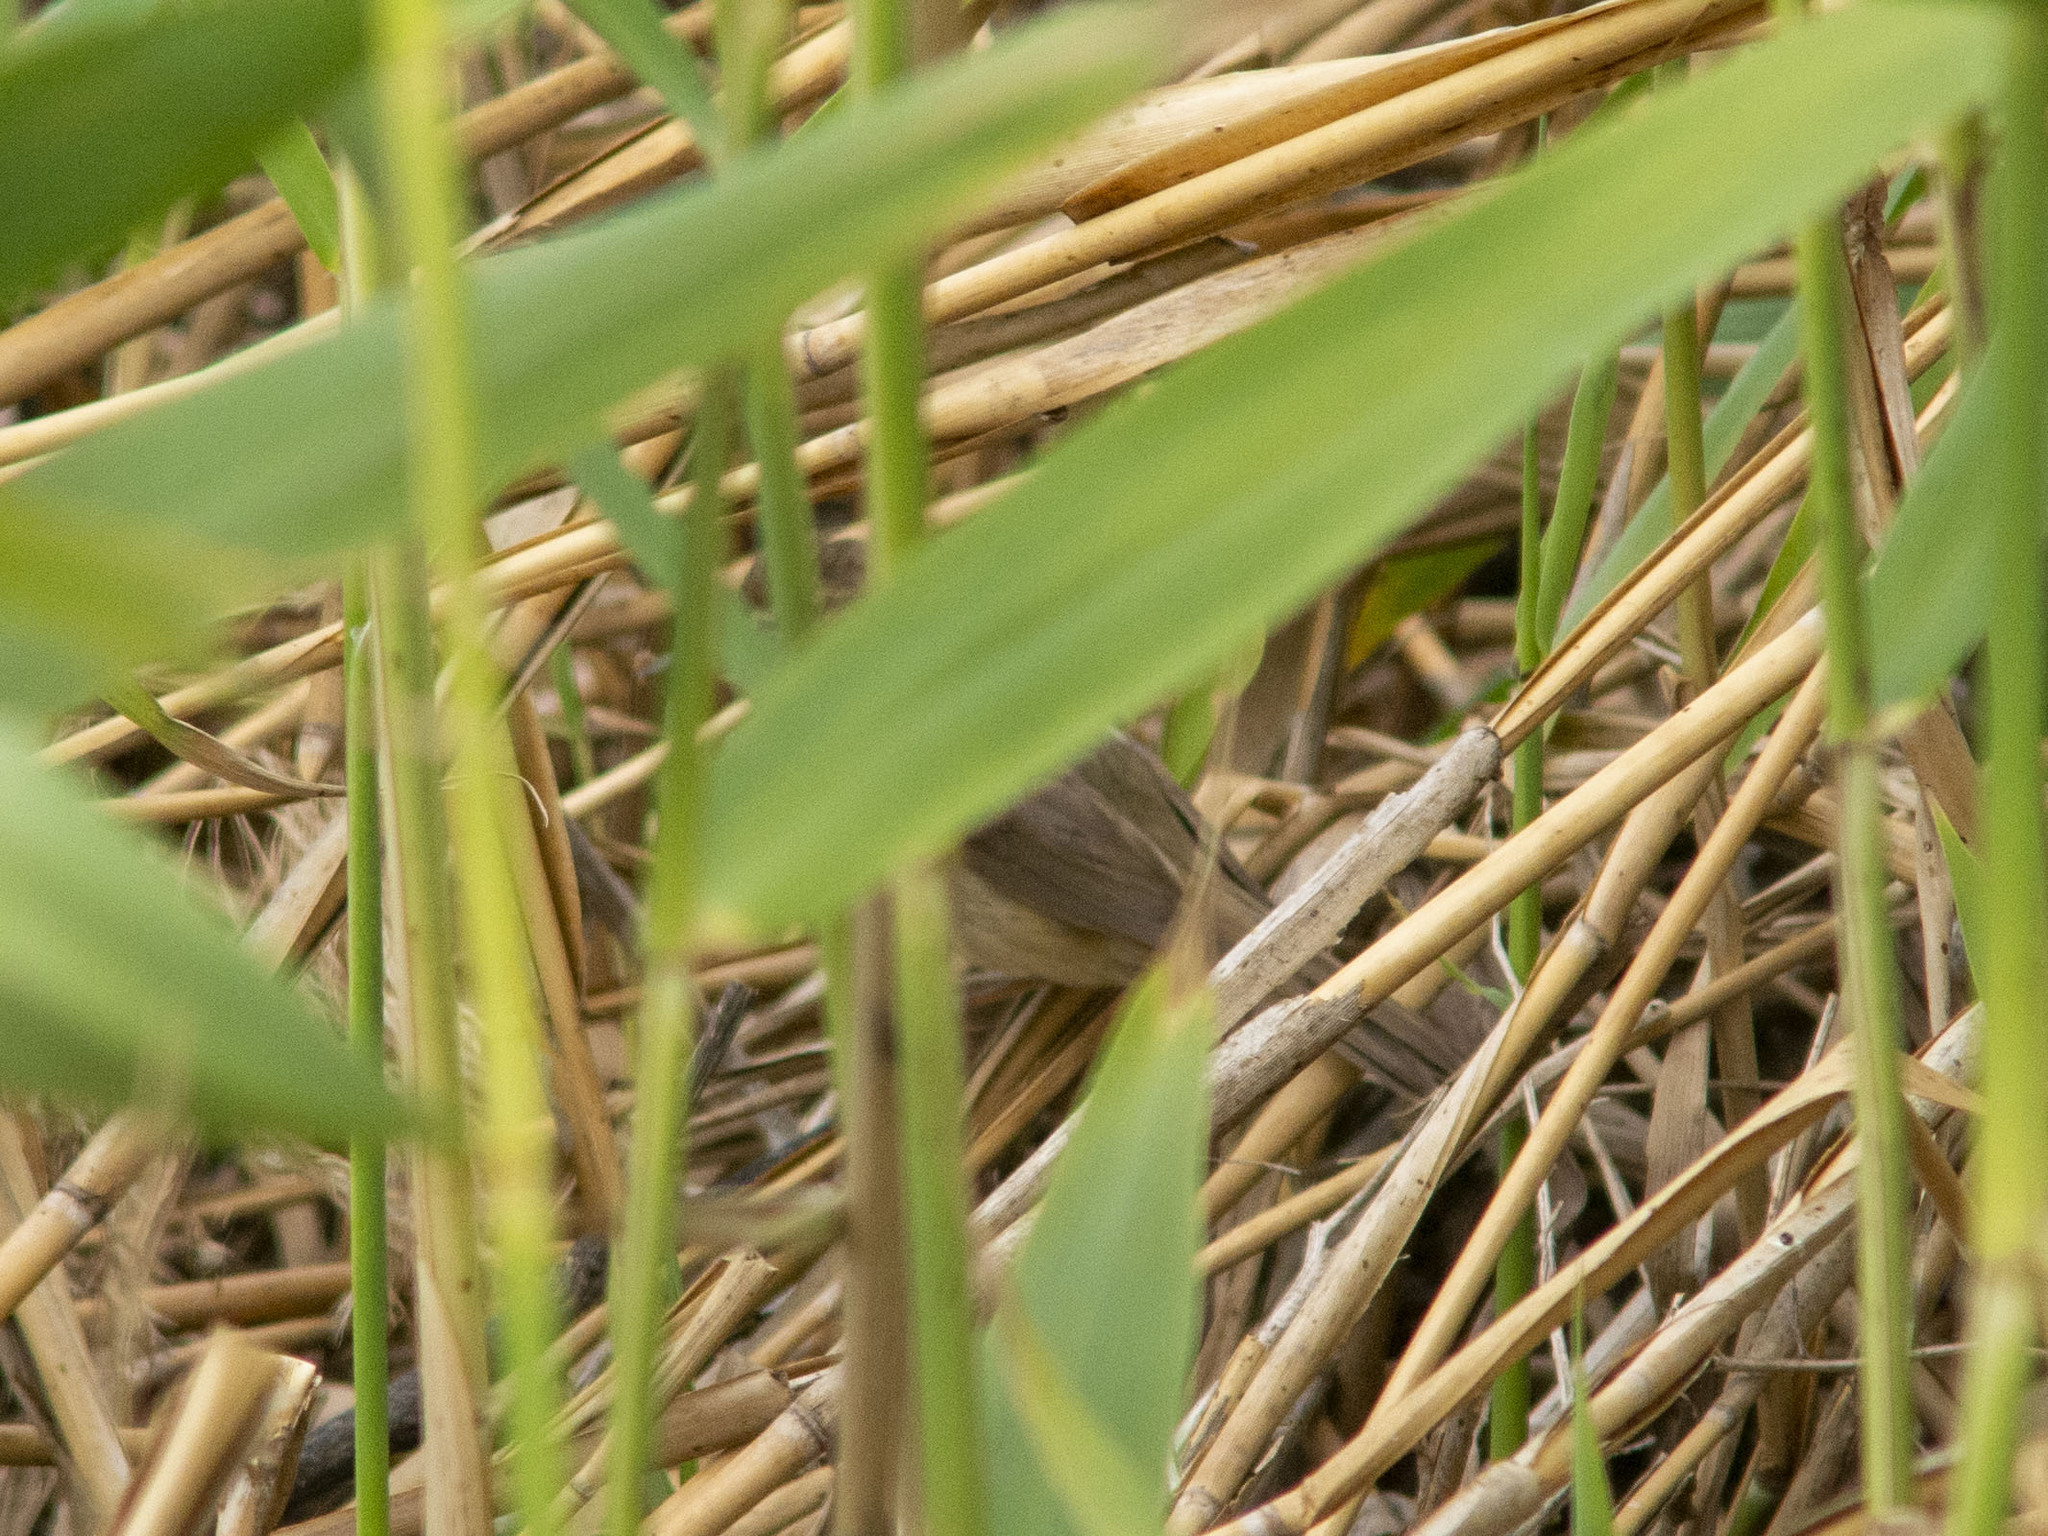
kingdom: Animalia
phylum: Chordata
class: Aves
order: Passeriformes
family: Acrocephalidae
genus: Acrocephalus
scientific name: Acrocephalus dumetorum
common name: Blyth's reed warbler
